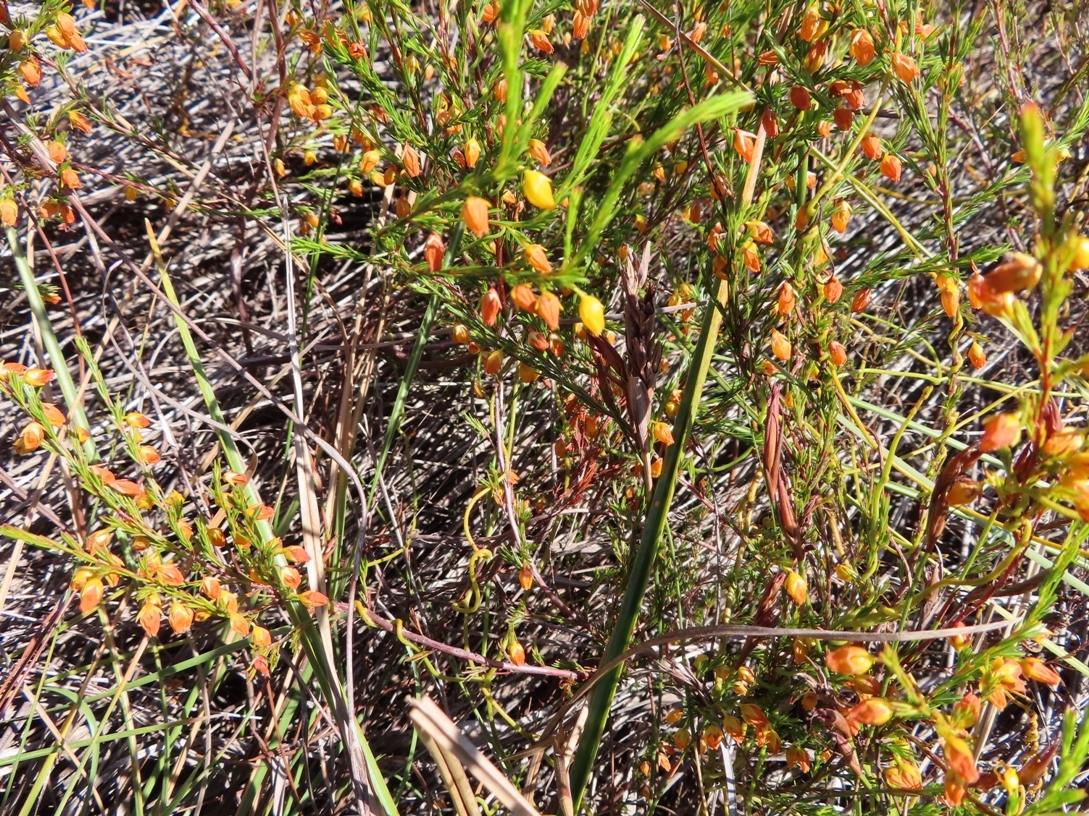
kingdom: Plantae
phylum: Tracheophyta
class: Magnoliopsida
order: Ericales
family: Ericaceae
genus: Erica
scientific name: Erica campanularis
